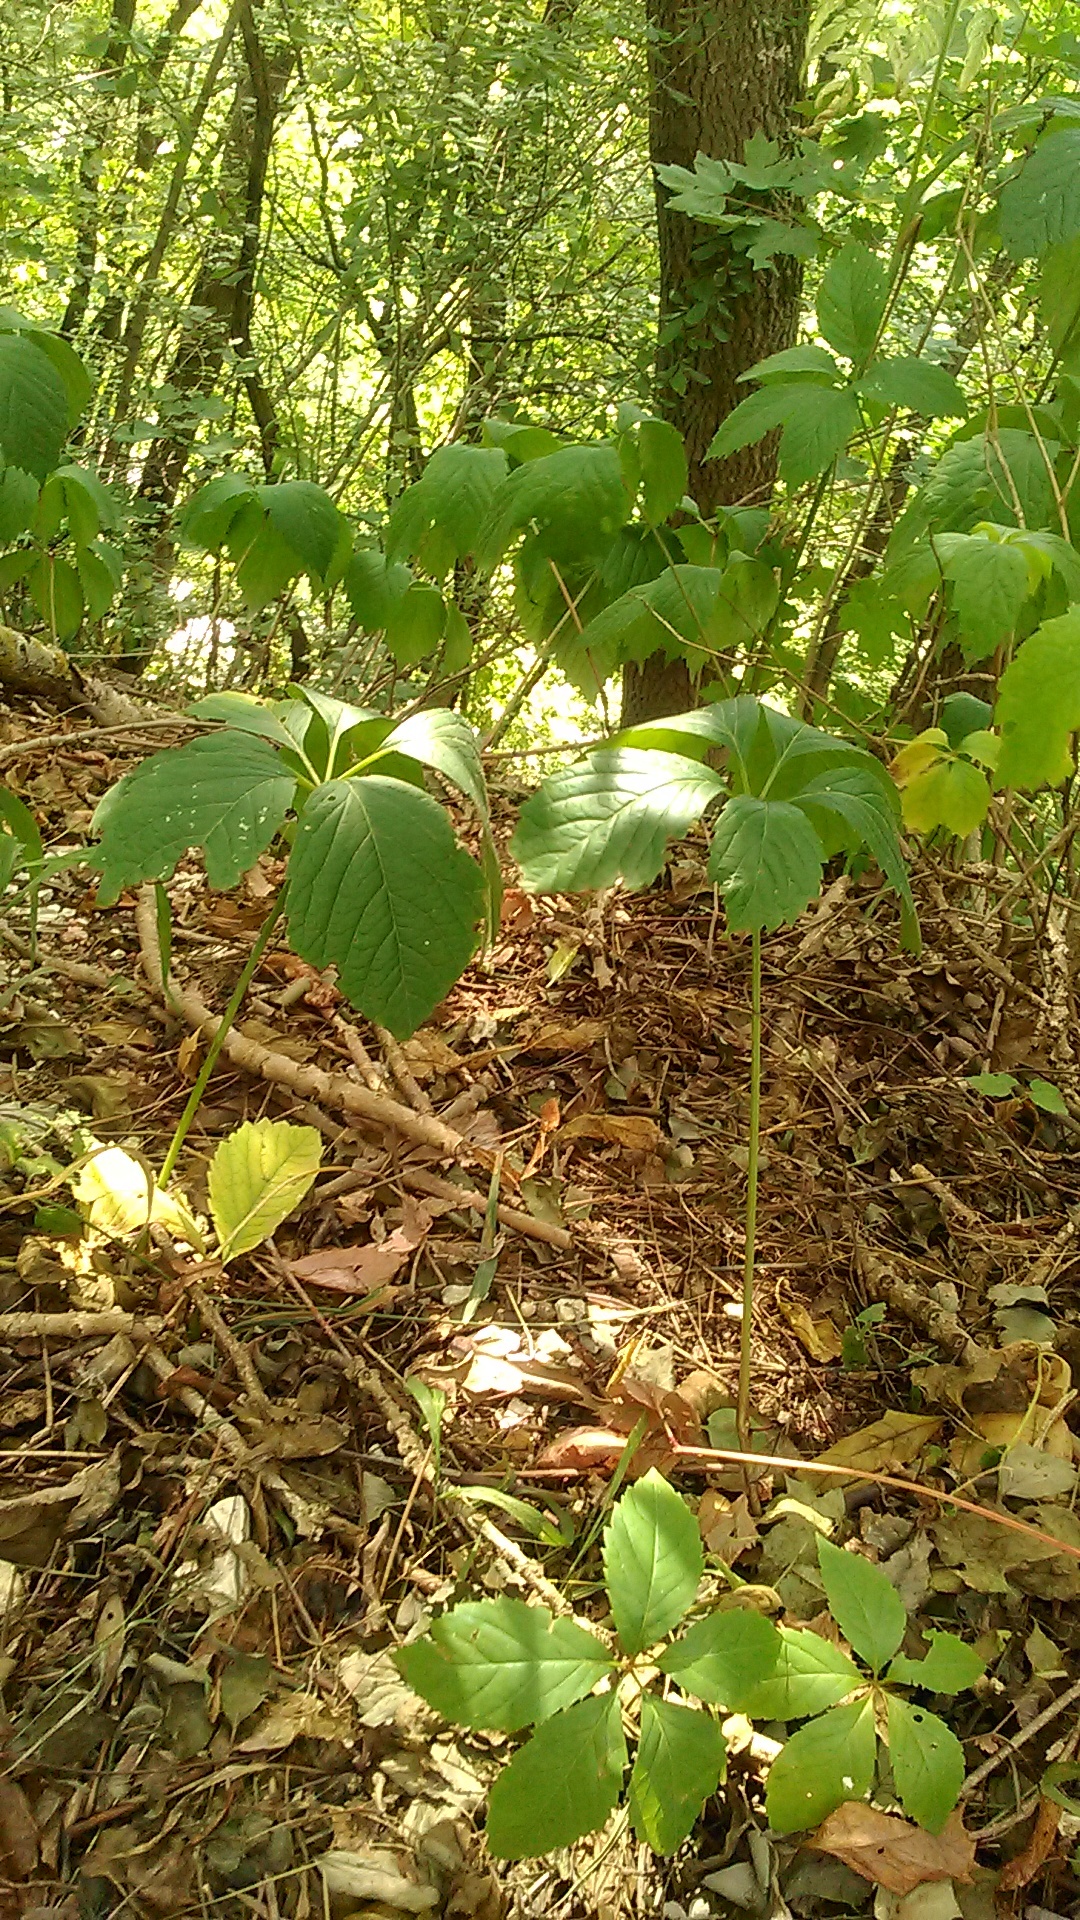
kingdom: Plantae
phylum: Tracheophyta
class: Magnoliopsida
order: Vitales
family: Vitaceae
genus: Parthenocissus
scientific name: Parthenocissus inserta
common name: False virginia-creeper
